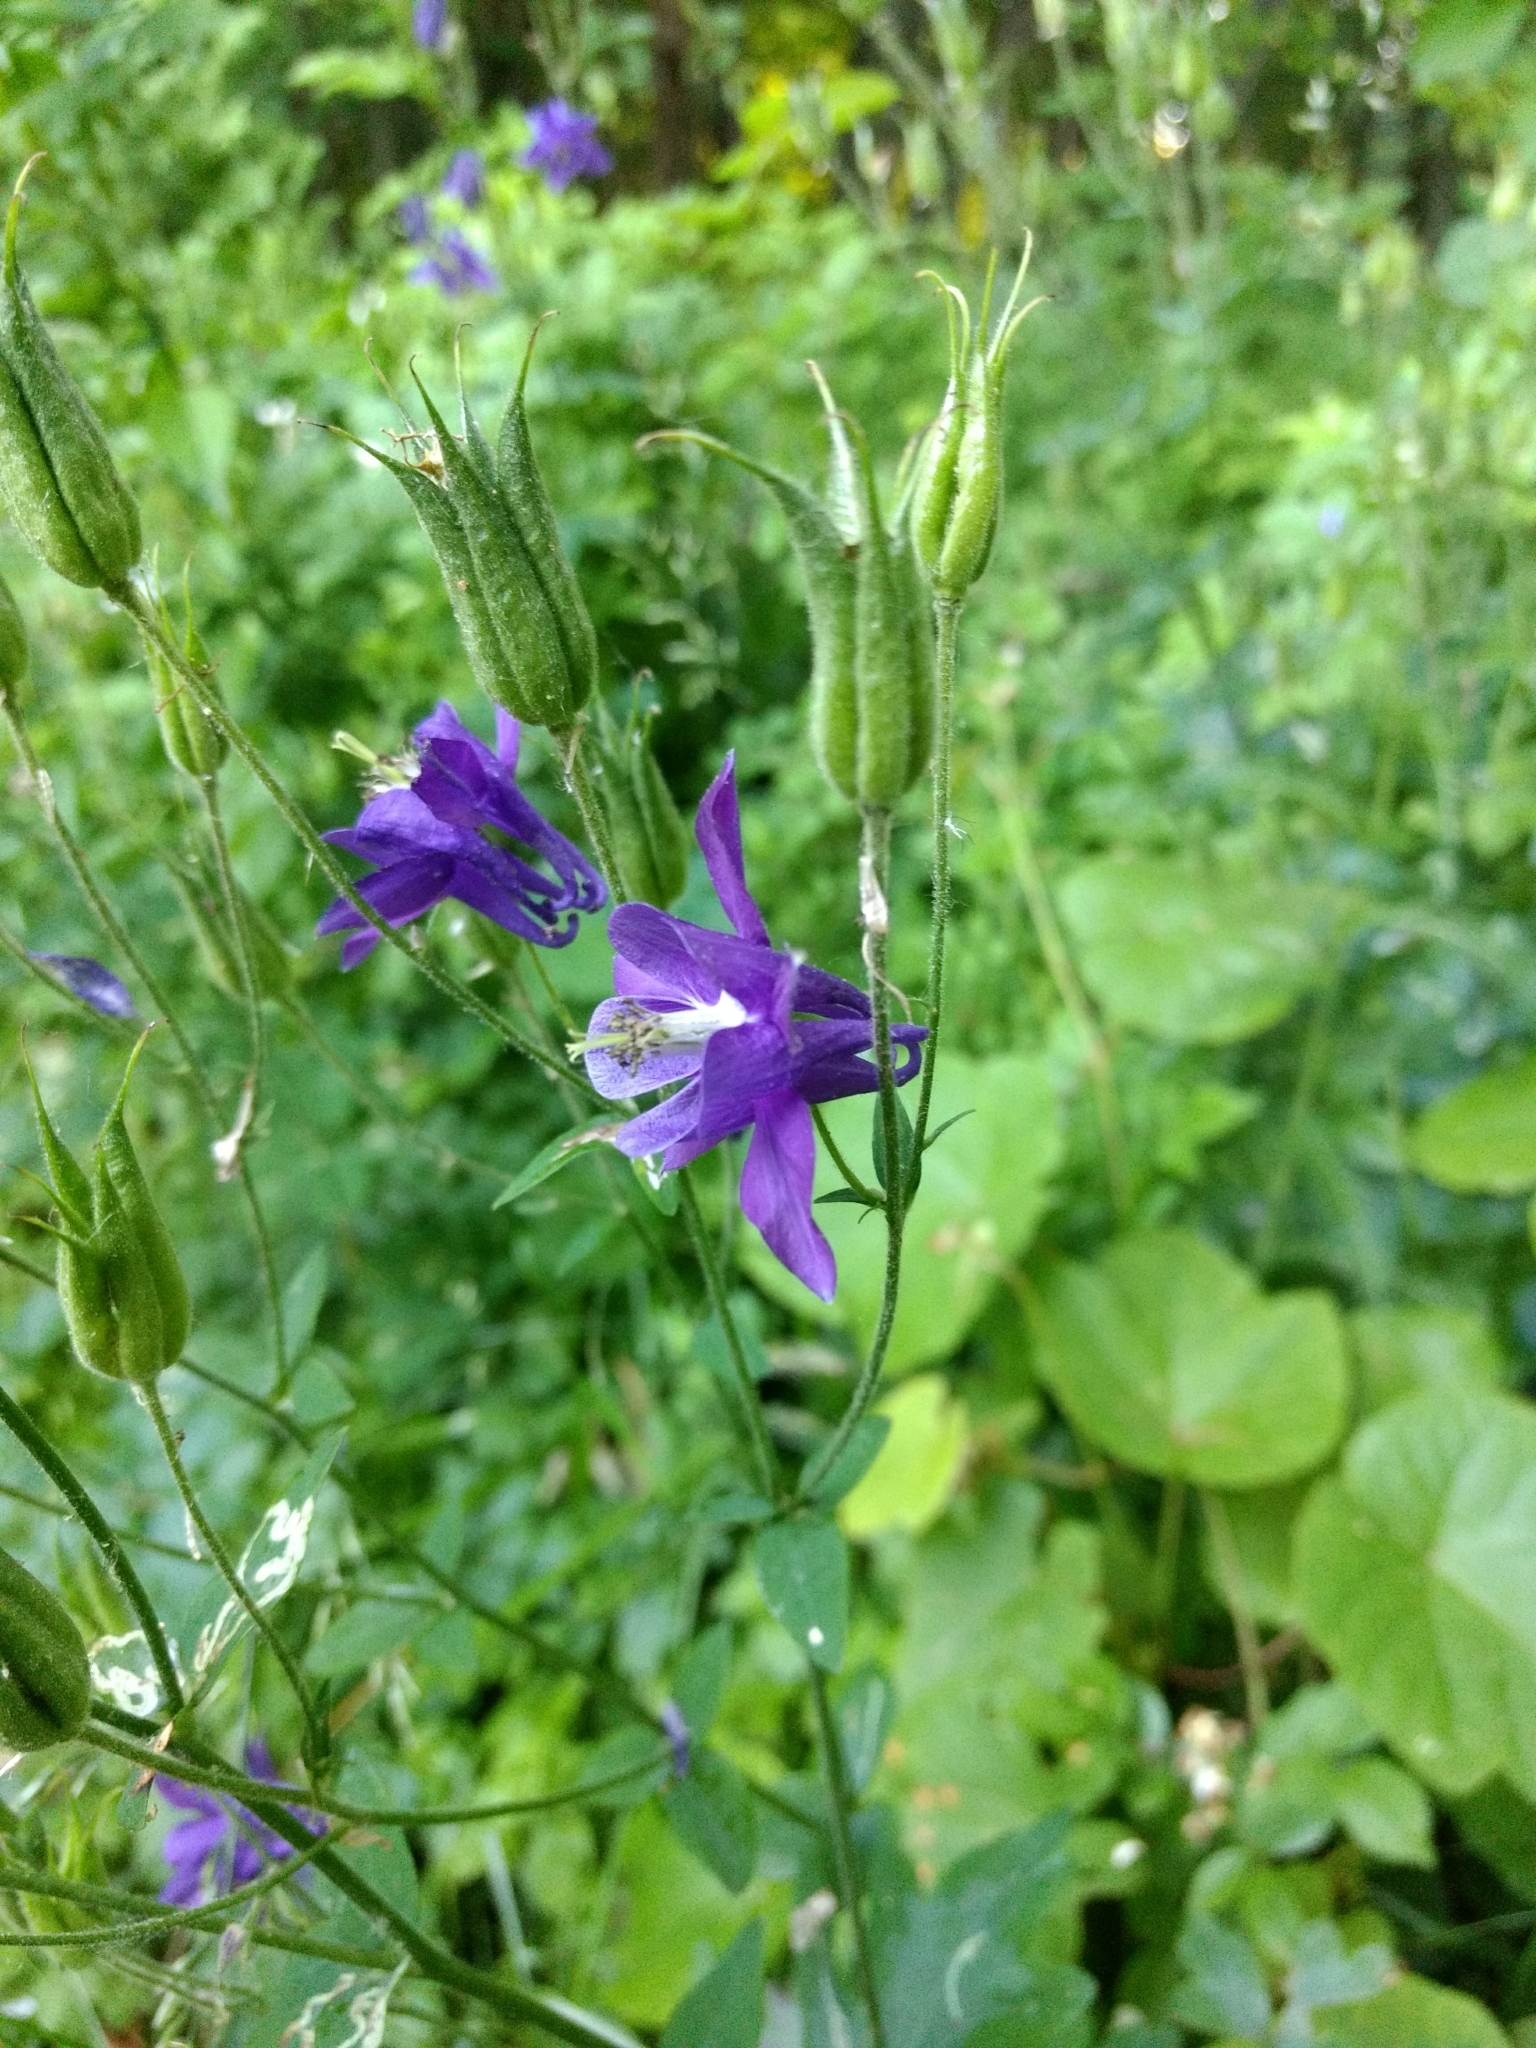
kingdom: Plantae
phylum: Tracheophyta
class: Magnoliopsida
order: Ranunculales
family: Ranunculaceae
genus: Aquilegia
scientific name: Aquilegia vulgaris
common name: Columbine
